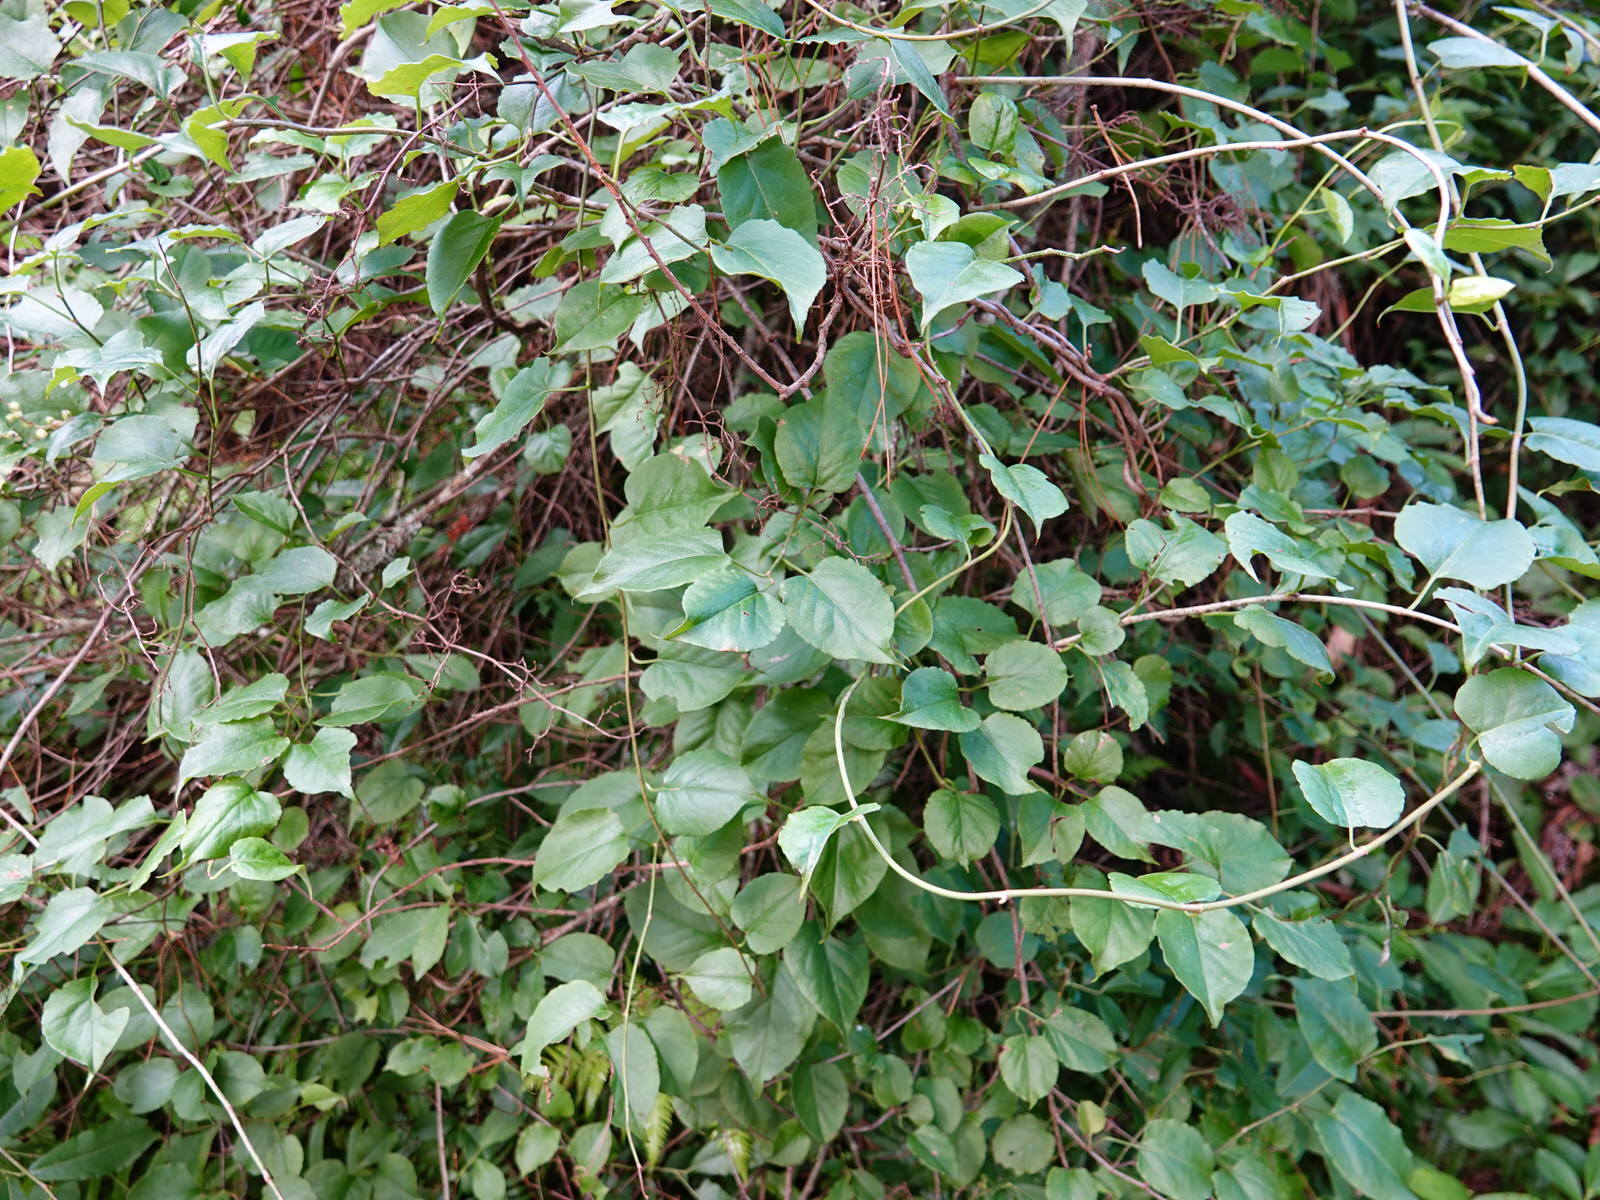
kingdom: Plantae
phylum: Tracheophyta
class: Magnoliopsida
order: Caryophyllales
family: Polygonaceae
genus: Muehlenbeckia
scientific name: Muehlenbeckia australis
